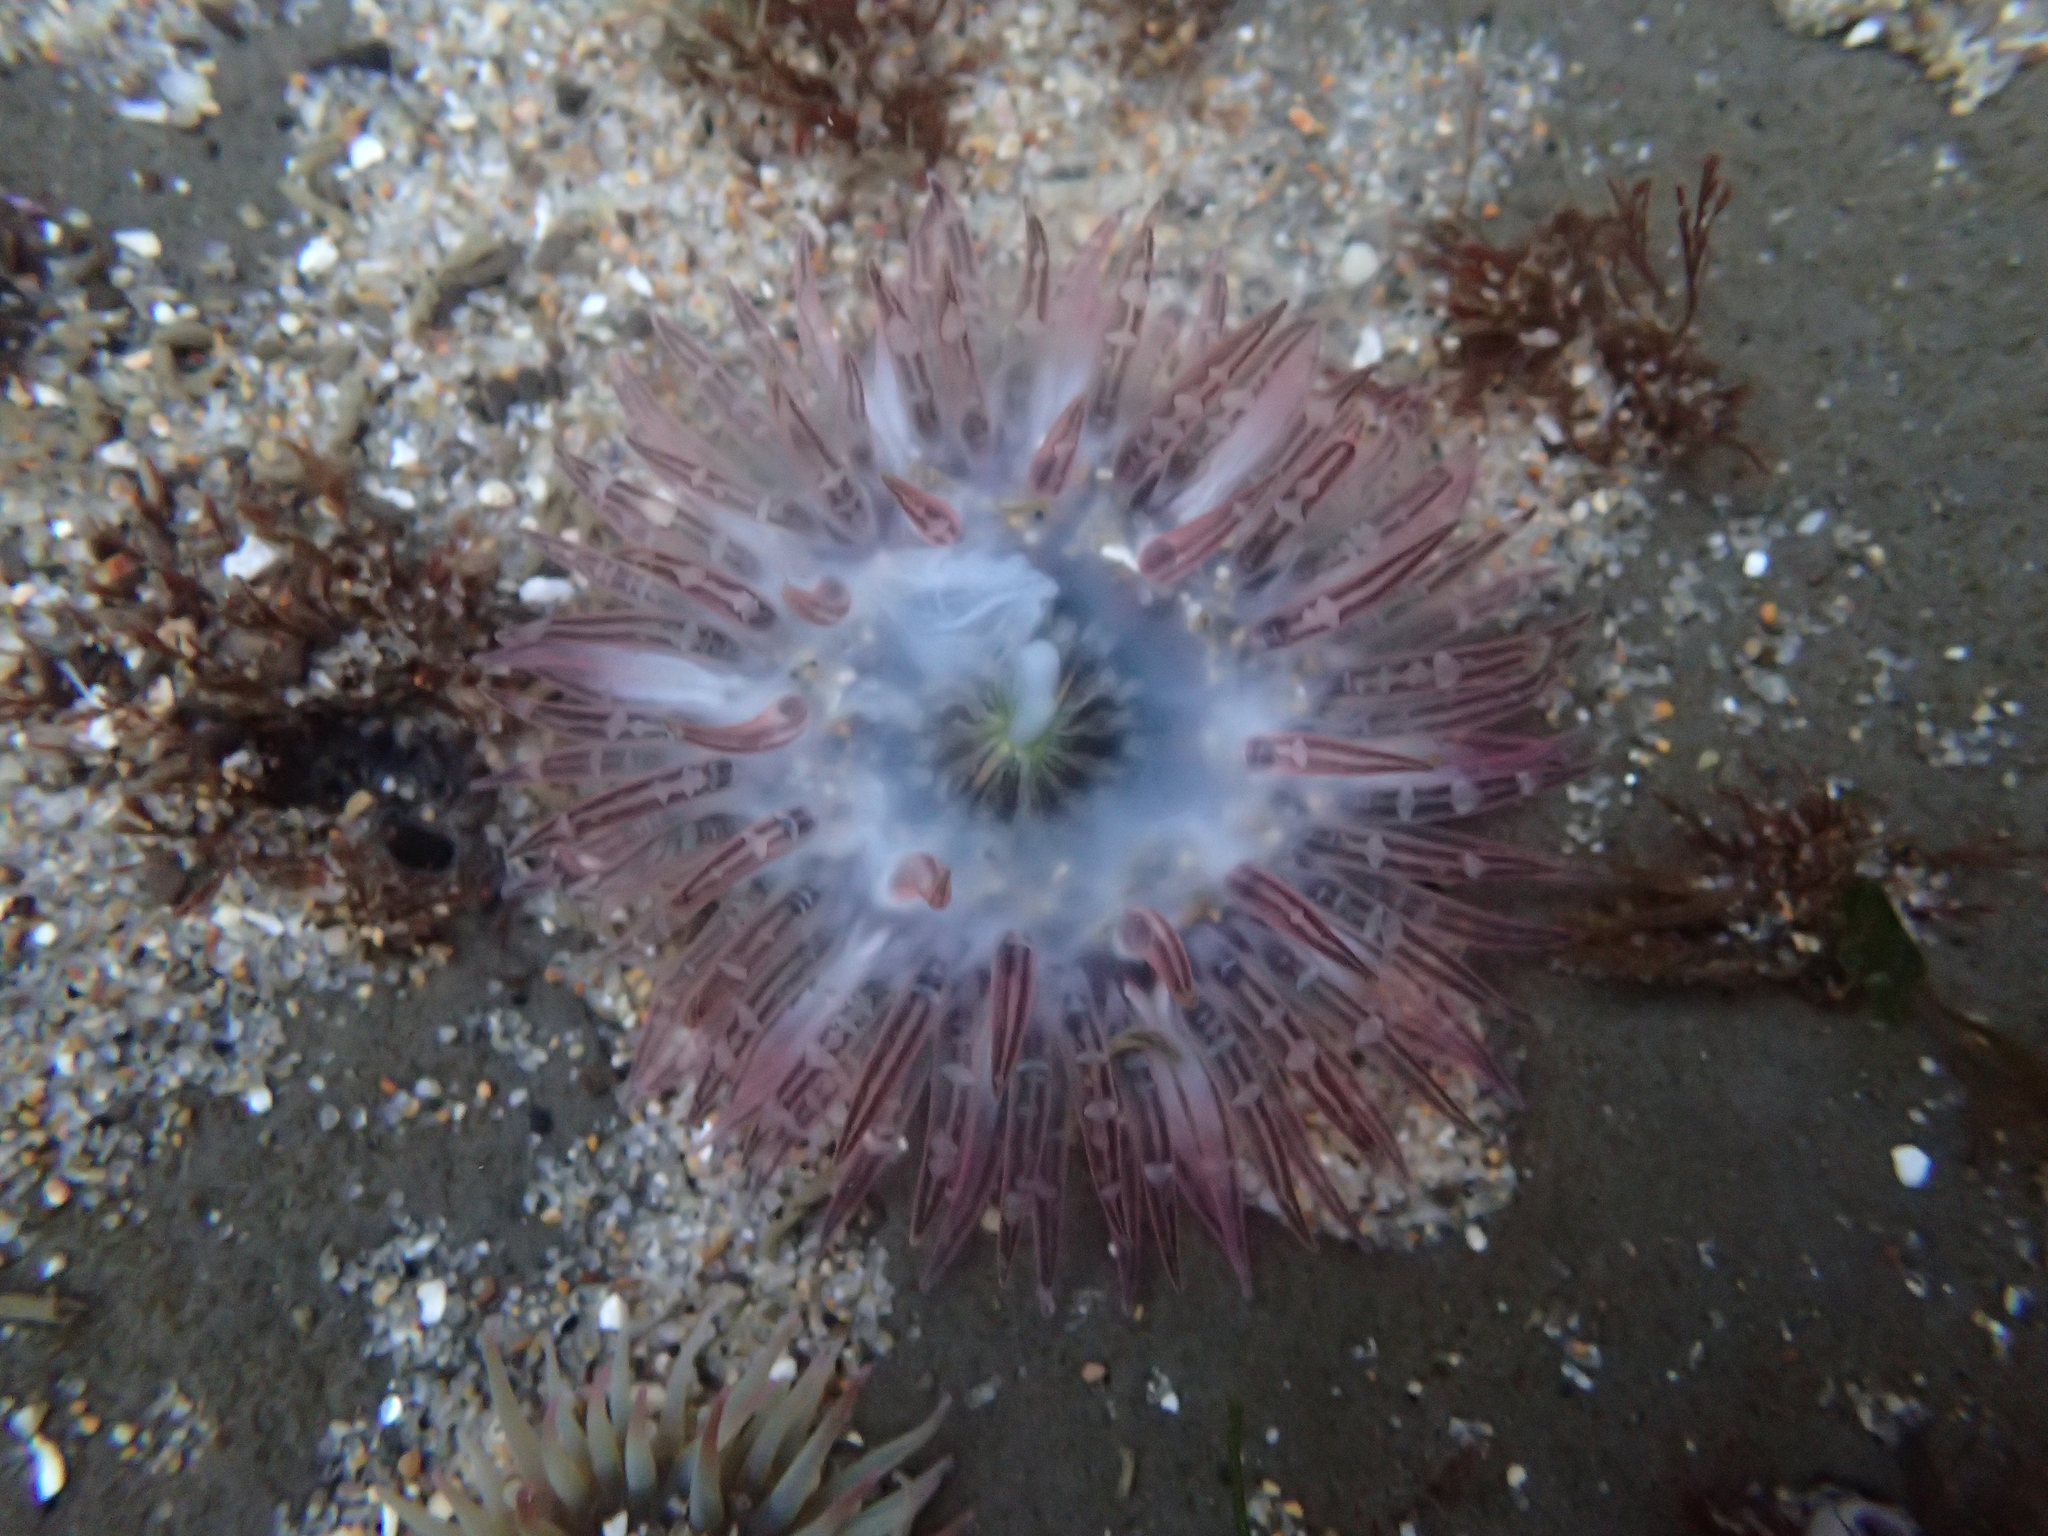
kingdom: Animalia
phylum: Cnidaria
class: Anthozoa
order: Actiniaria
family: Actiniidae
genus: Anthopleura
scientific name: Anthopleura artemisia
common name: Buried sea anemone
